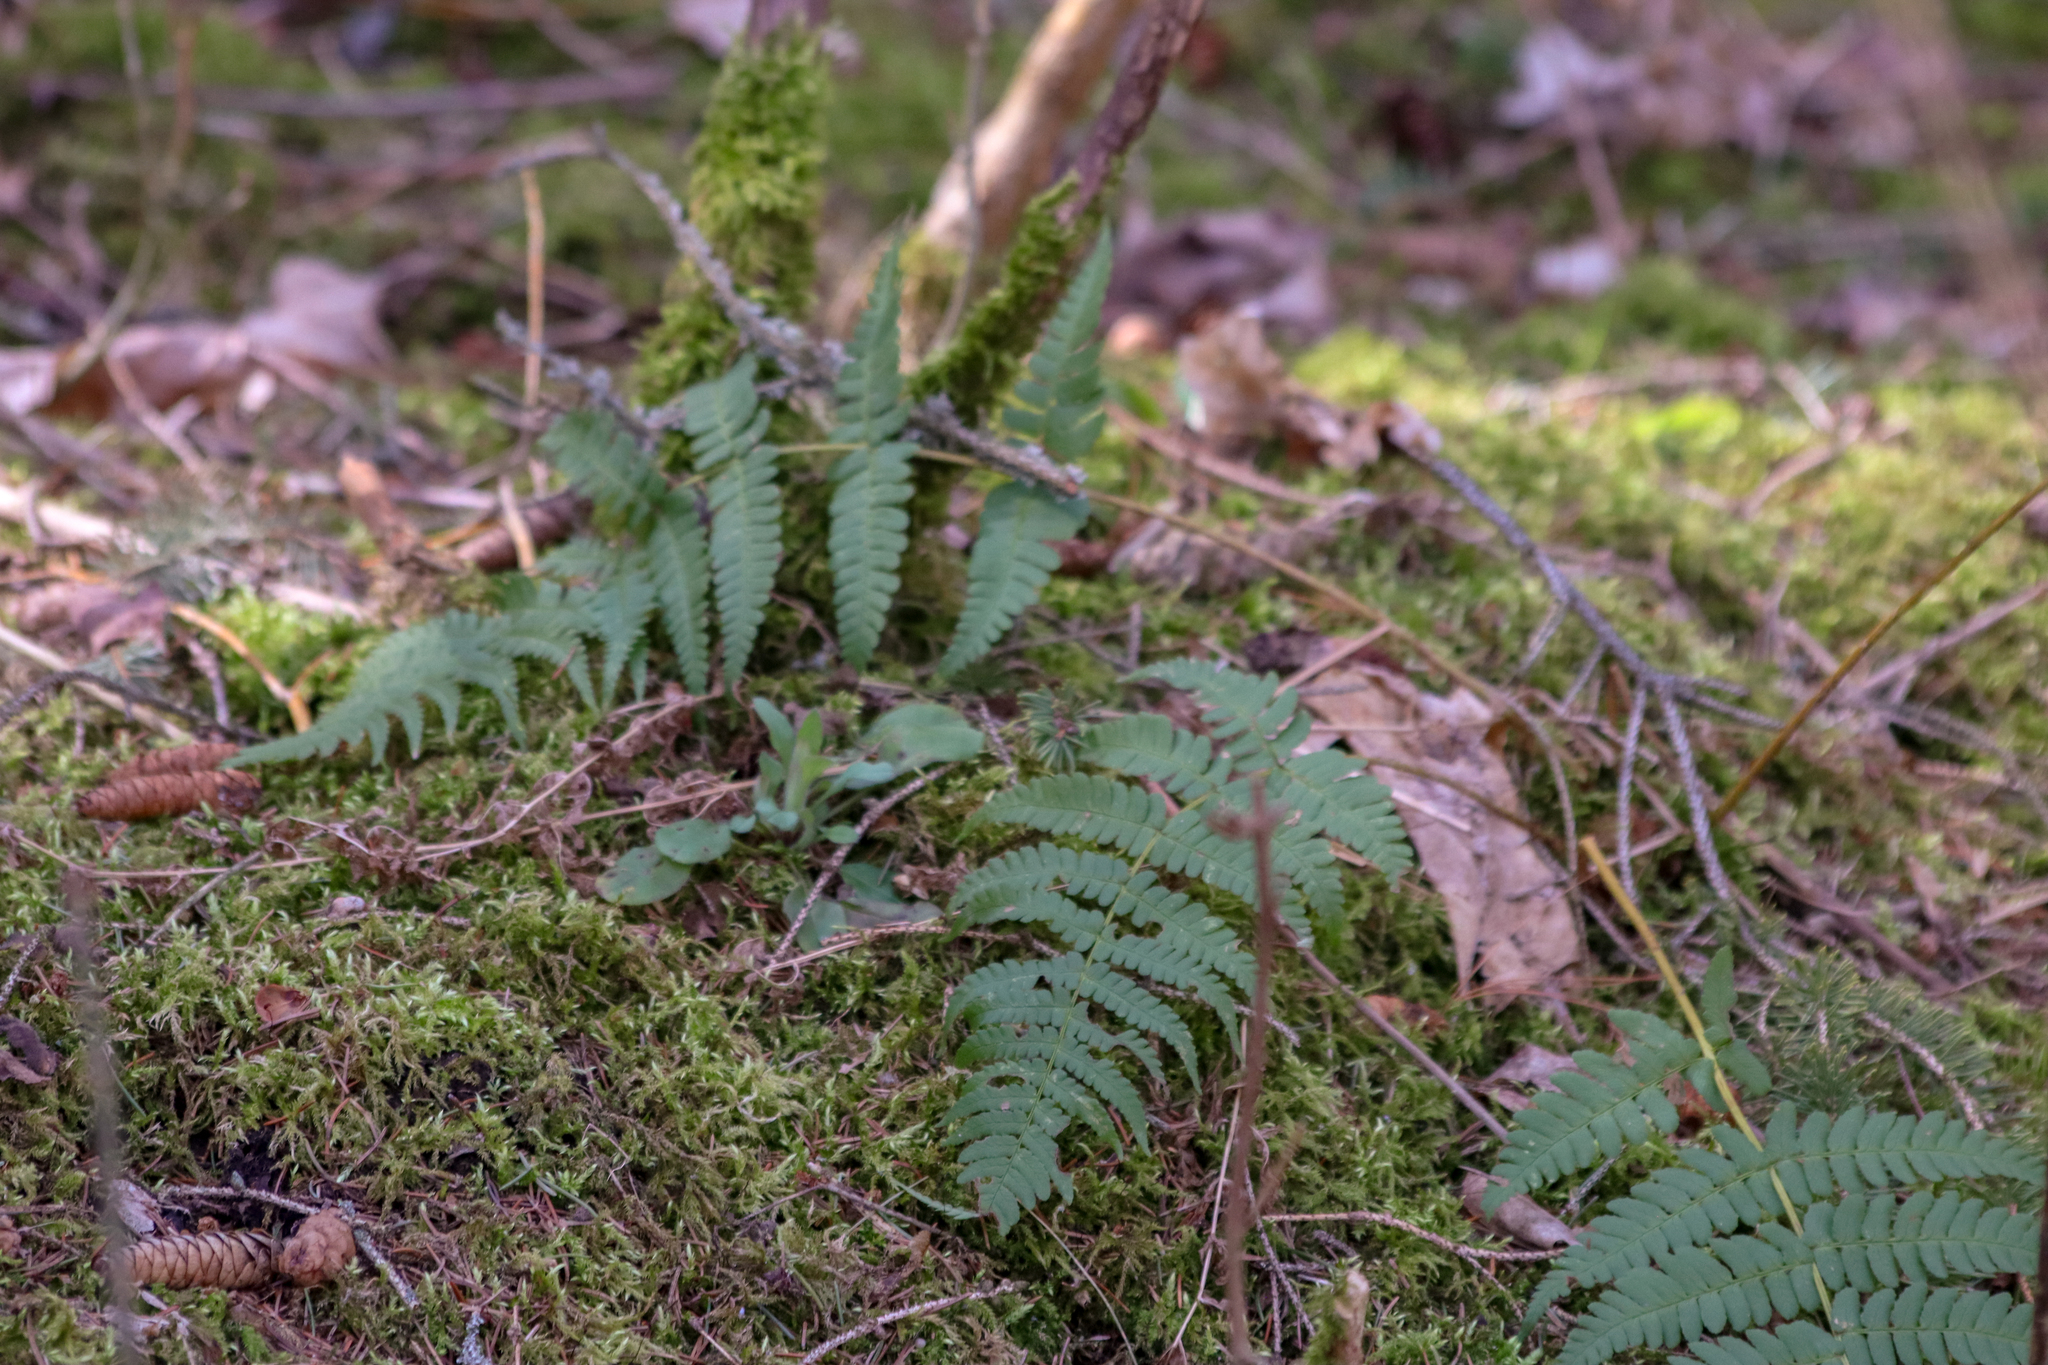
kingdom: Plantae
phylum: Tracheophyta
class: Polypodiopsida
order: Polypodiales
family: Dryopteridaceae
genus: Dryopteris
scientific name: Dryopteris marginalis
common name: Marginal wood fern
